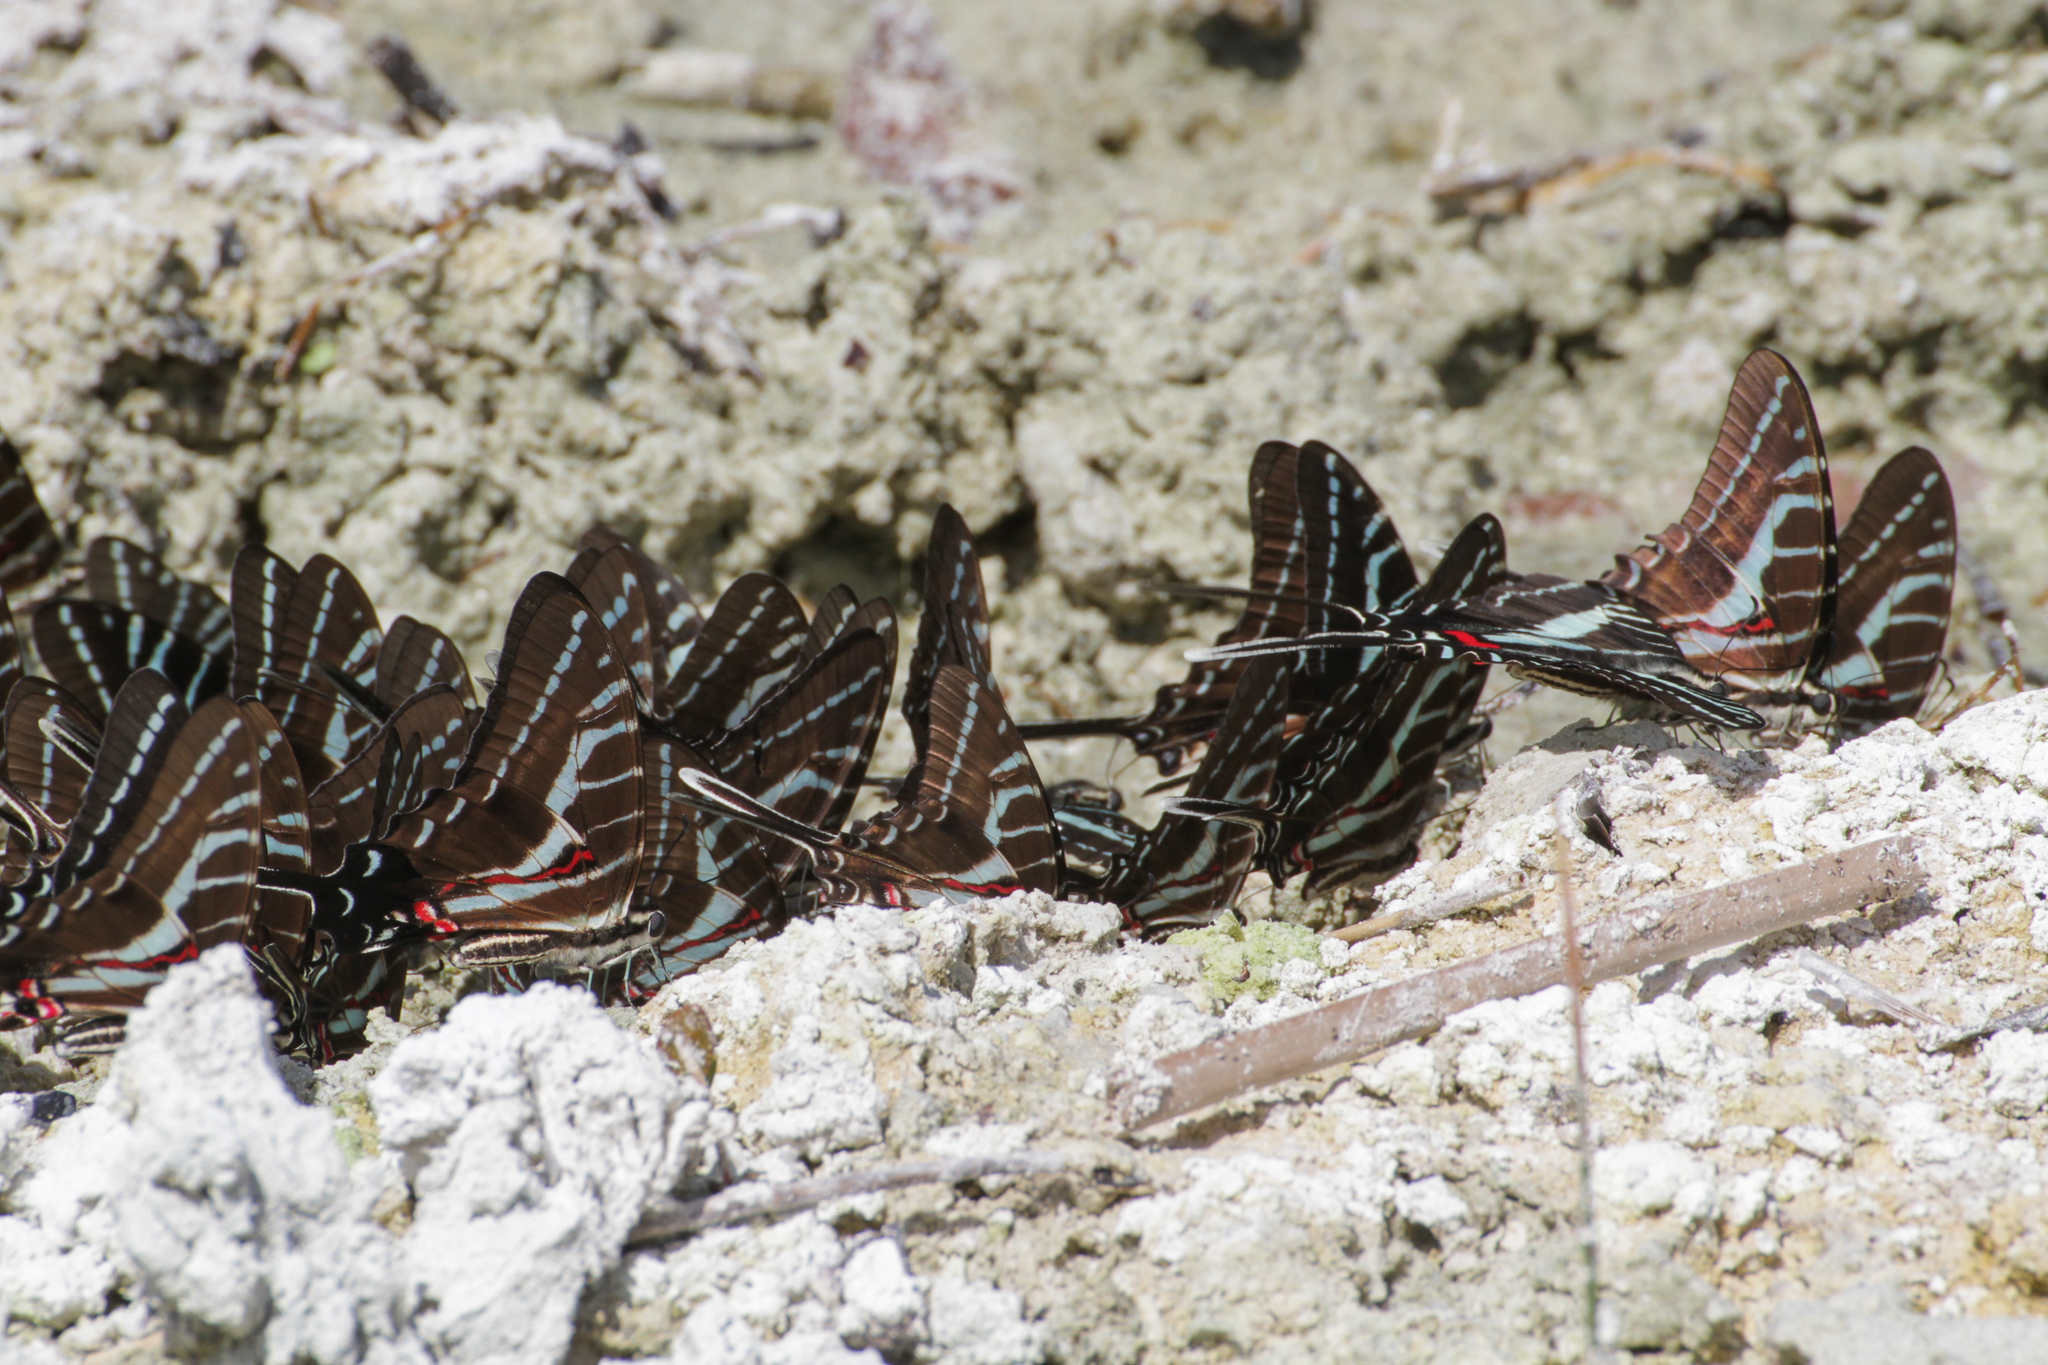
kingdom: Animalia
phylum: Arthropoda
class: Insecta
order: Lepidoptera
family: Papilionidae
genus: Protographium
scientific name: Protographium philolaus
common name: Dark zebra swallowtail
